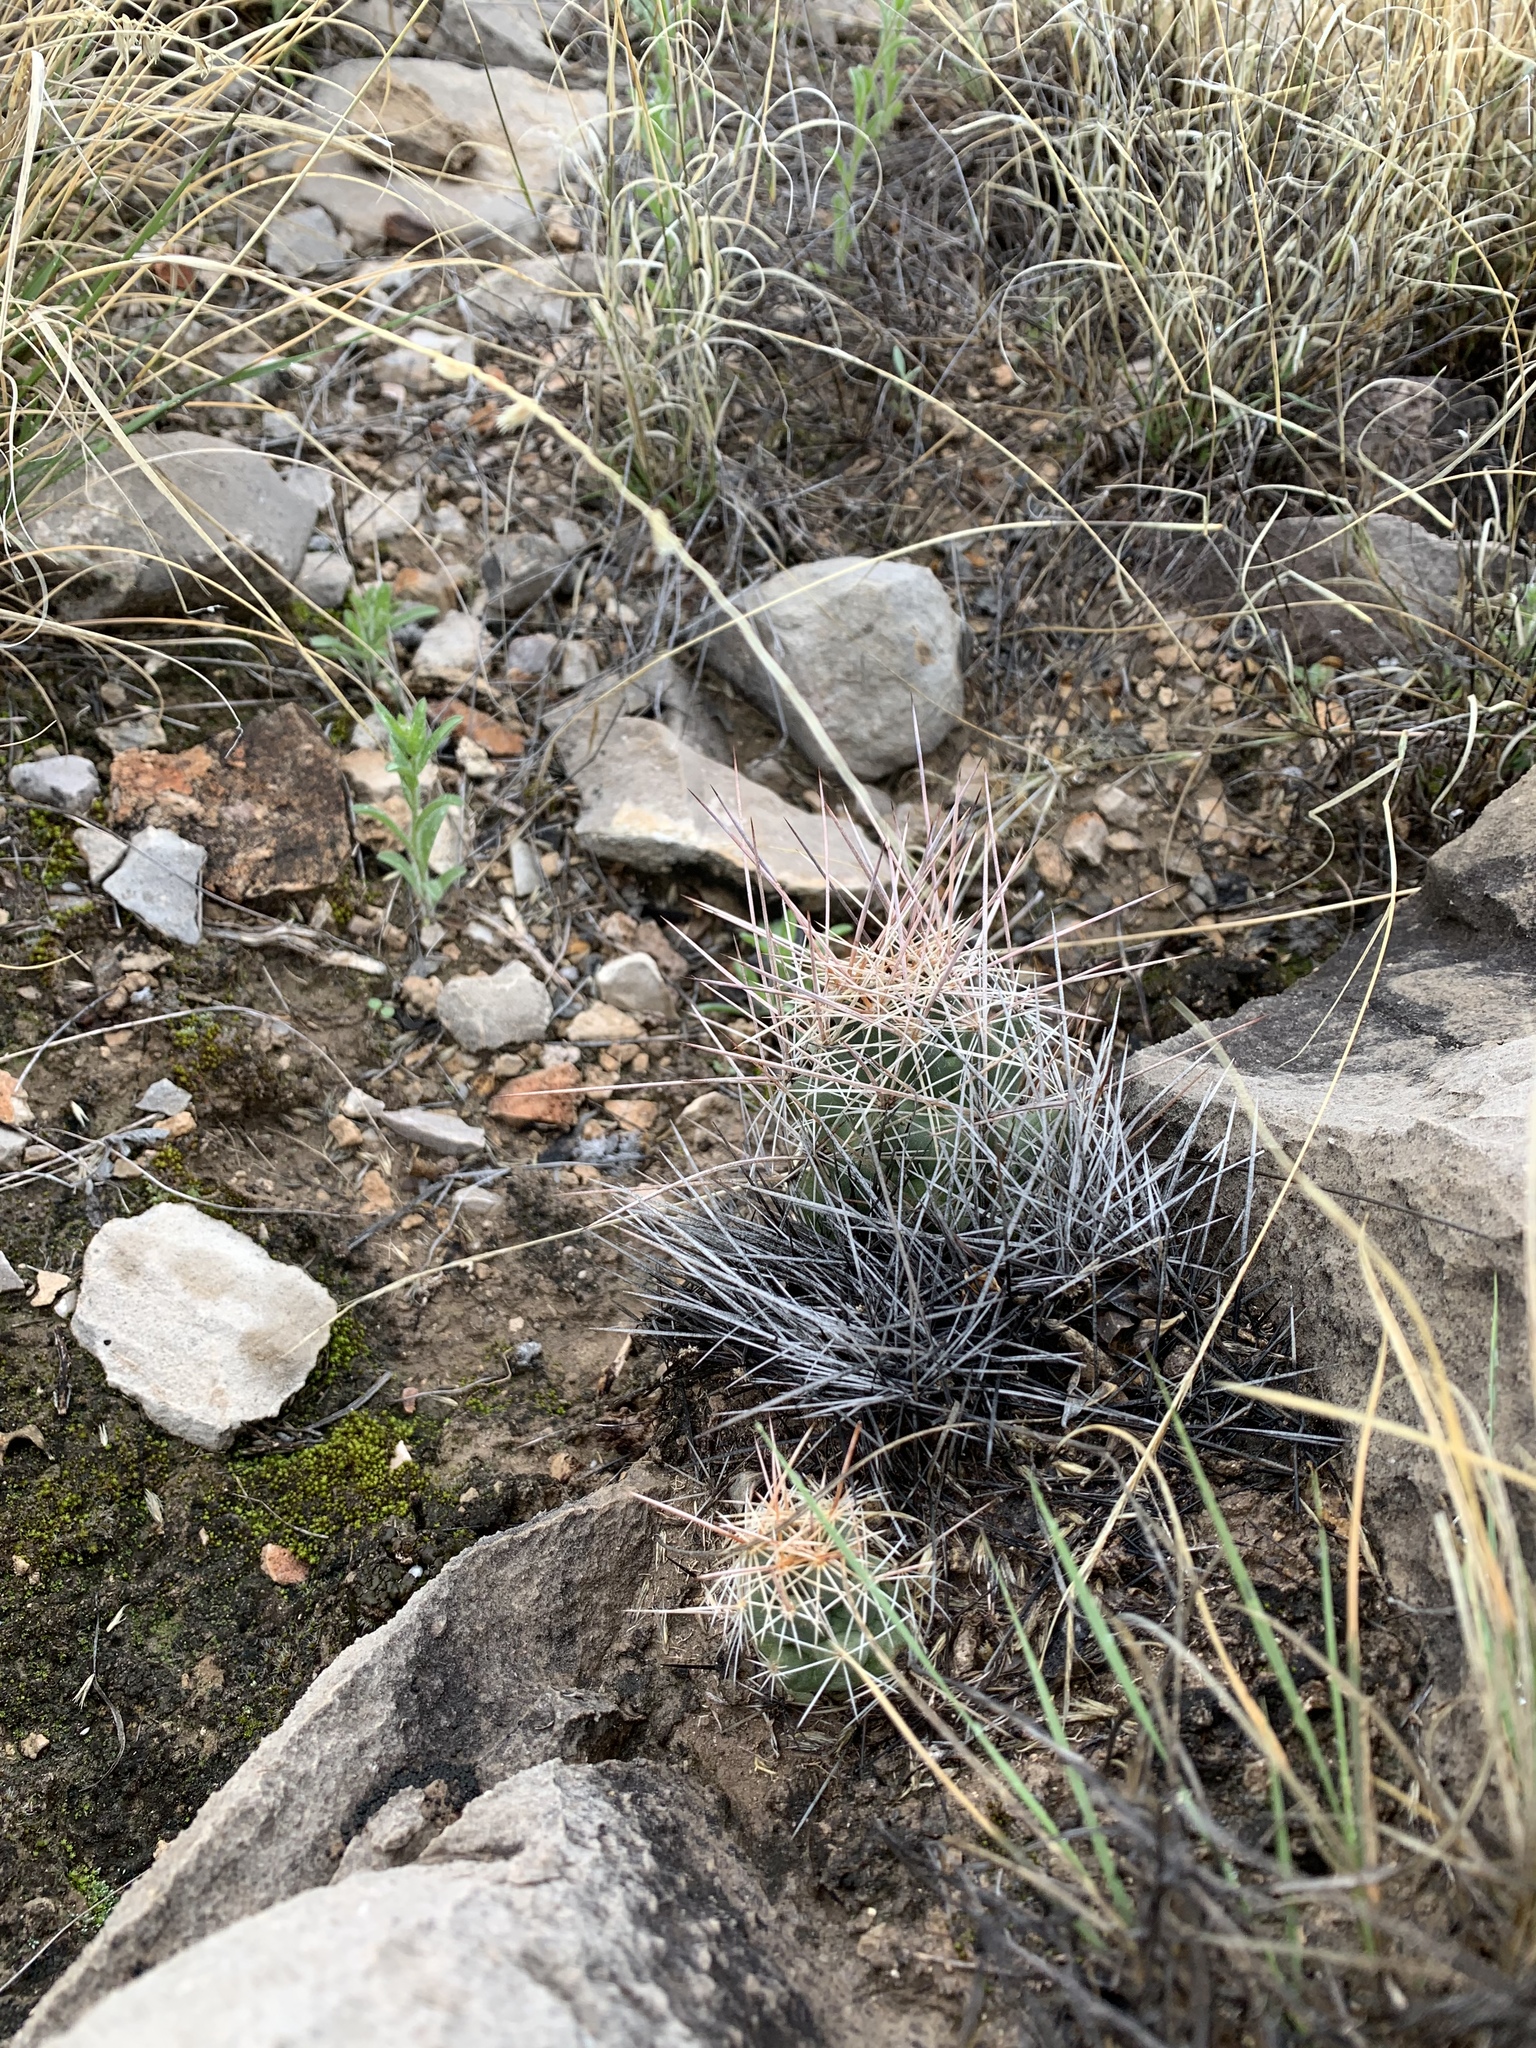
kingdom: Plantae
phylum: Tracheophyta
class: Magnoliopsida
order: Caryophyllales
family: Cactaceae
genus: Coryphantha
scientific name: Coryphantha macromeris
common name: Nipple beehive cactus
